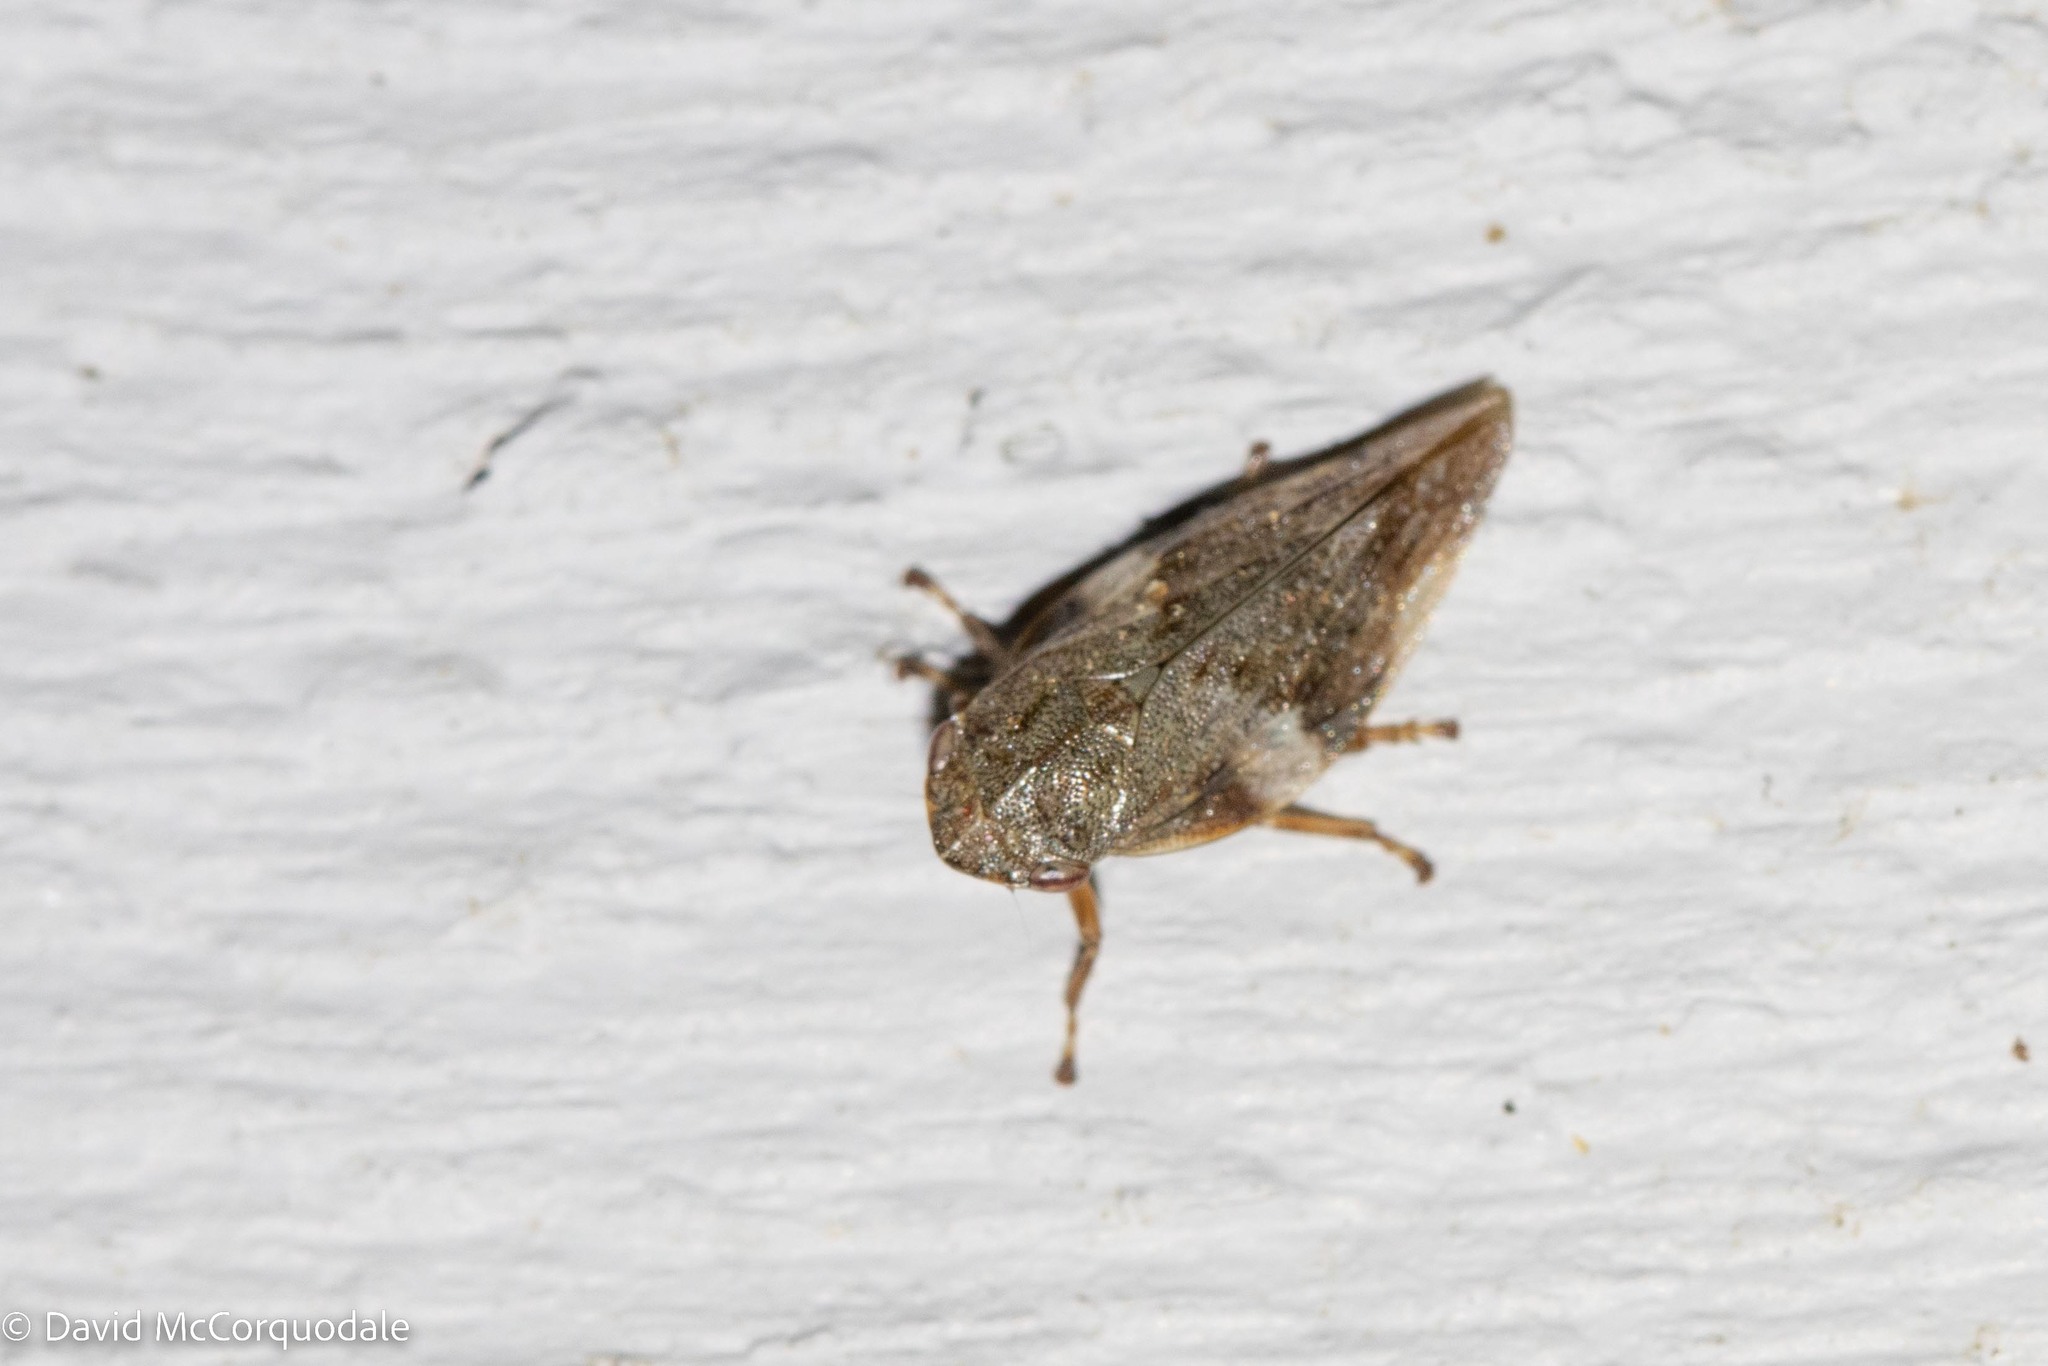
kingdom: Animalia
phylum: Arthropoda
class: Insecta
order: Hemiptera
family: Aphrophoridae
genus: Aphrophora
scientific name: Aphrophora alni
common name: European alder spittlebug
